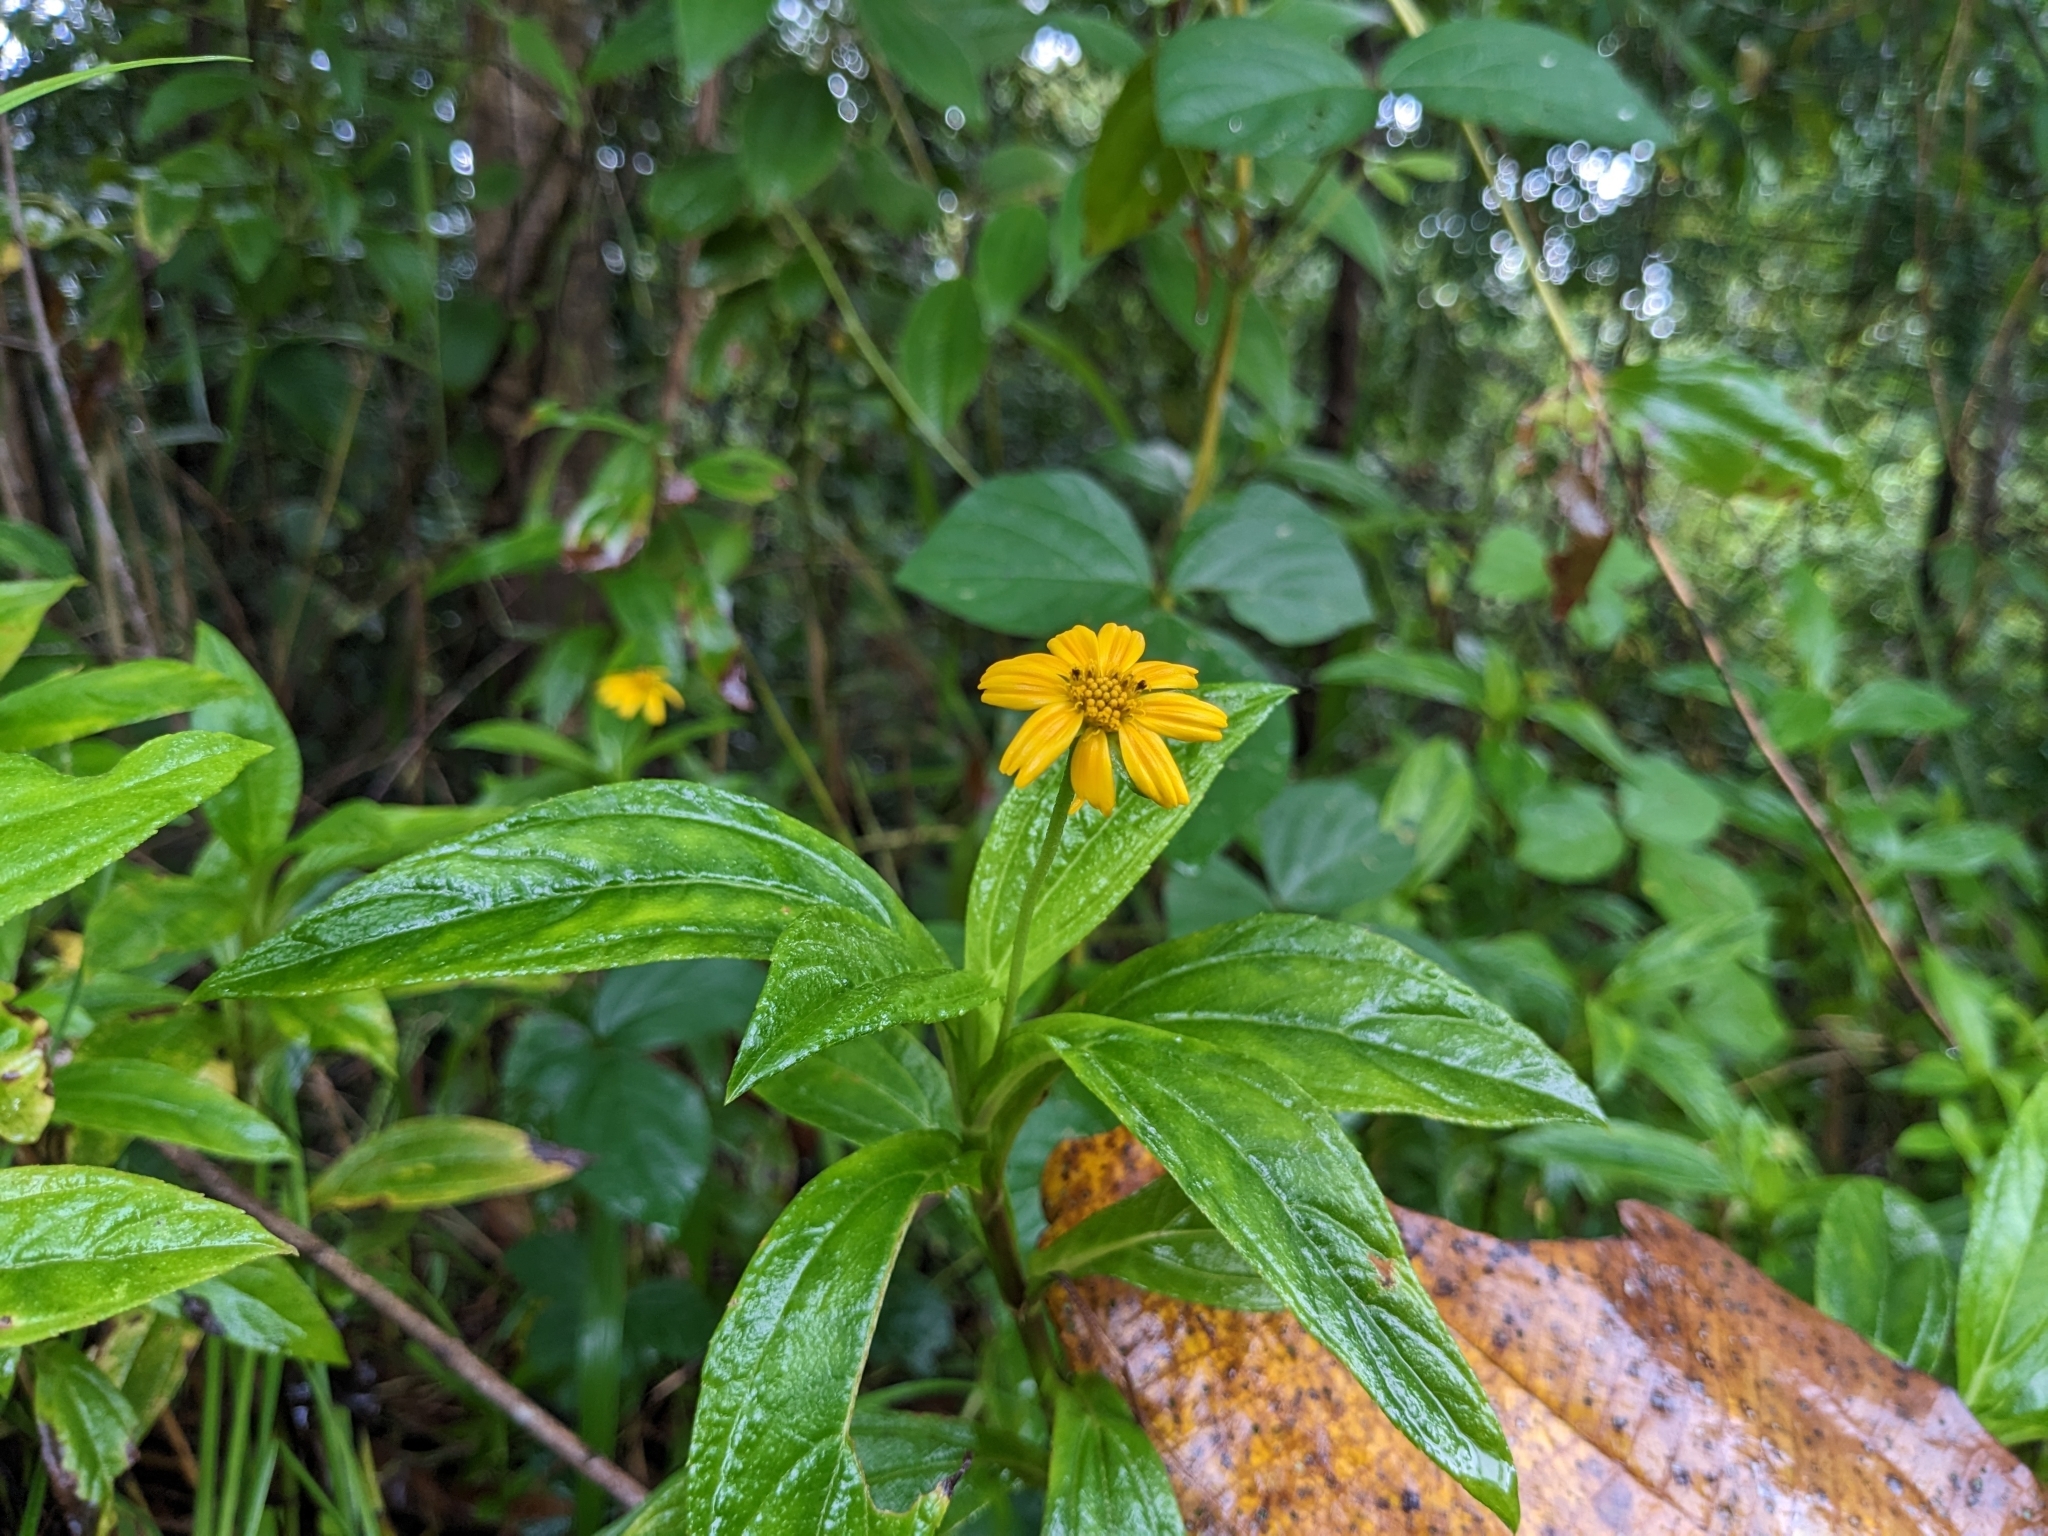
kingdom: Plantae
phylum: Tracheophyta
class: Magnoliopsida
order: Asterales
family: Asteraceae
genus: Sphagneticola
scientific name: Sphagneticola trilobata
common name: Bay biscayne creeping-oxeye
